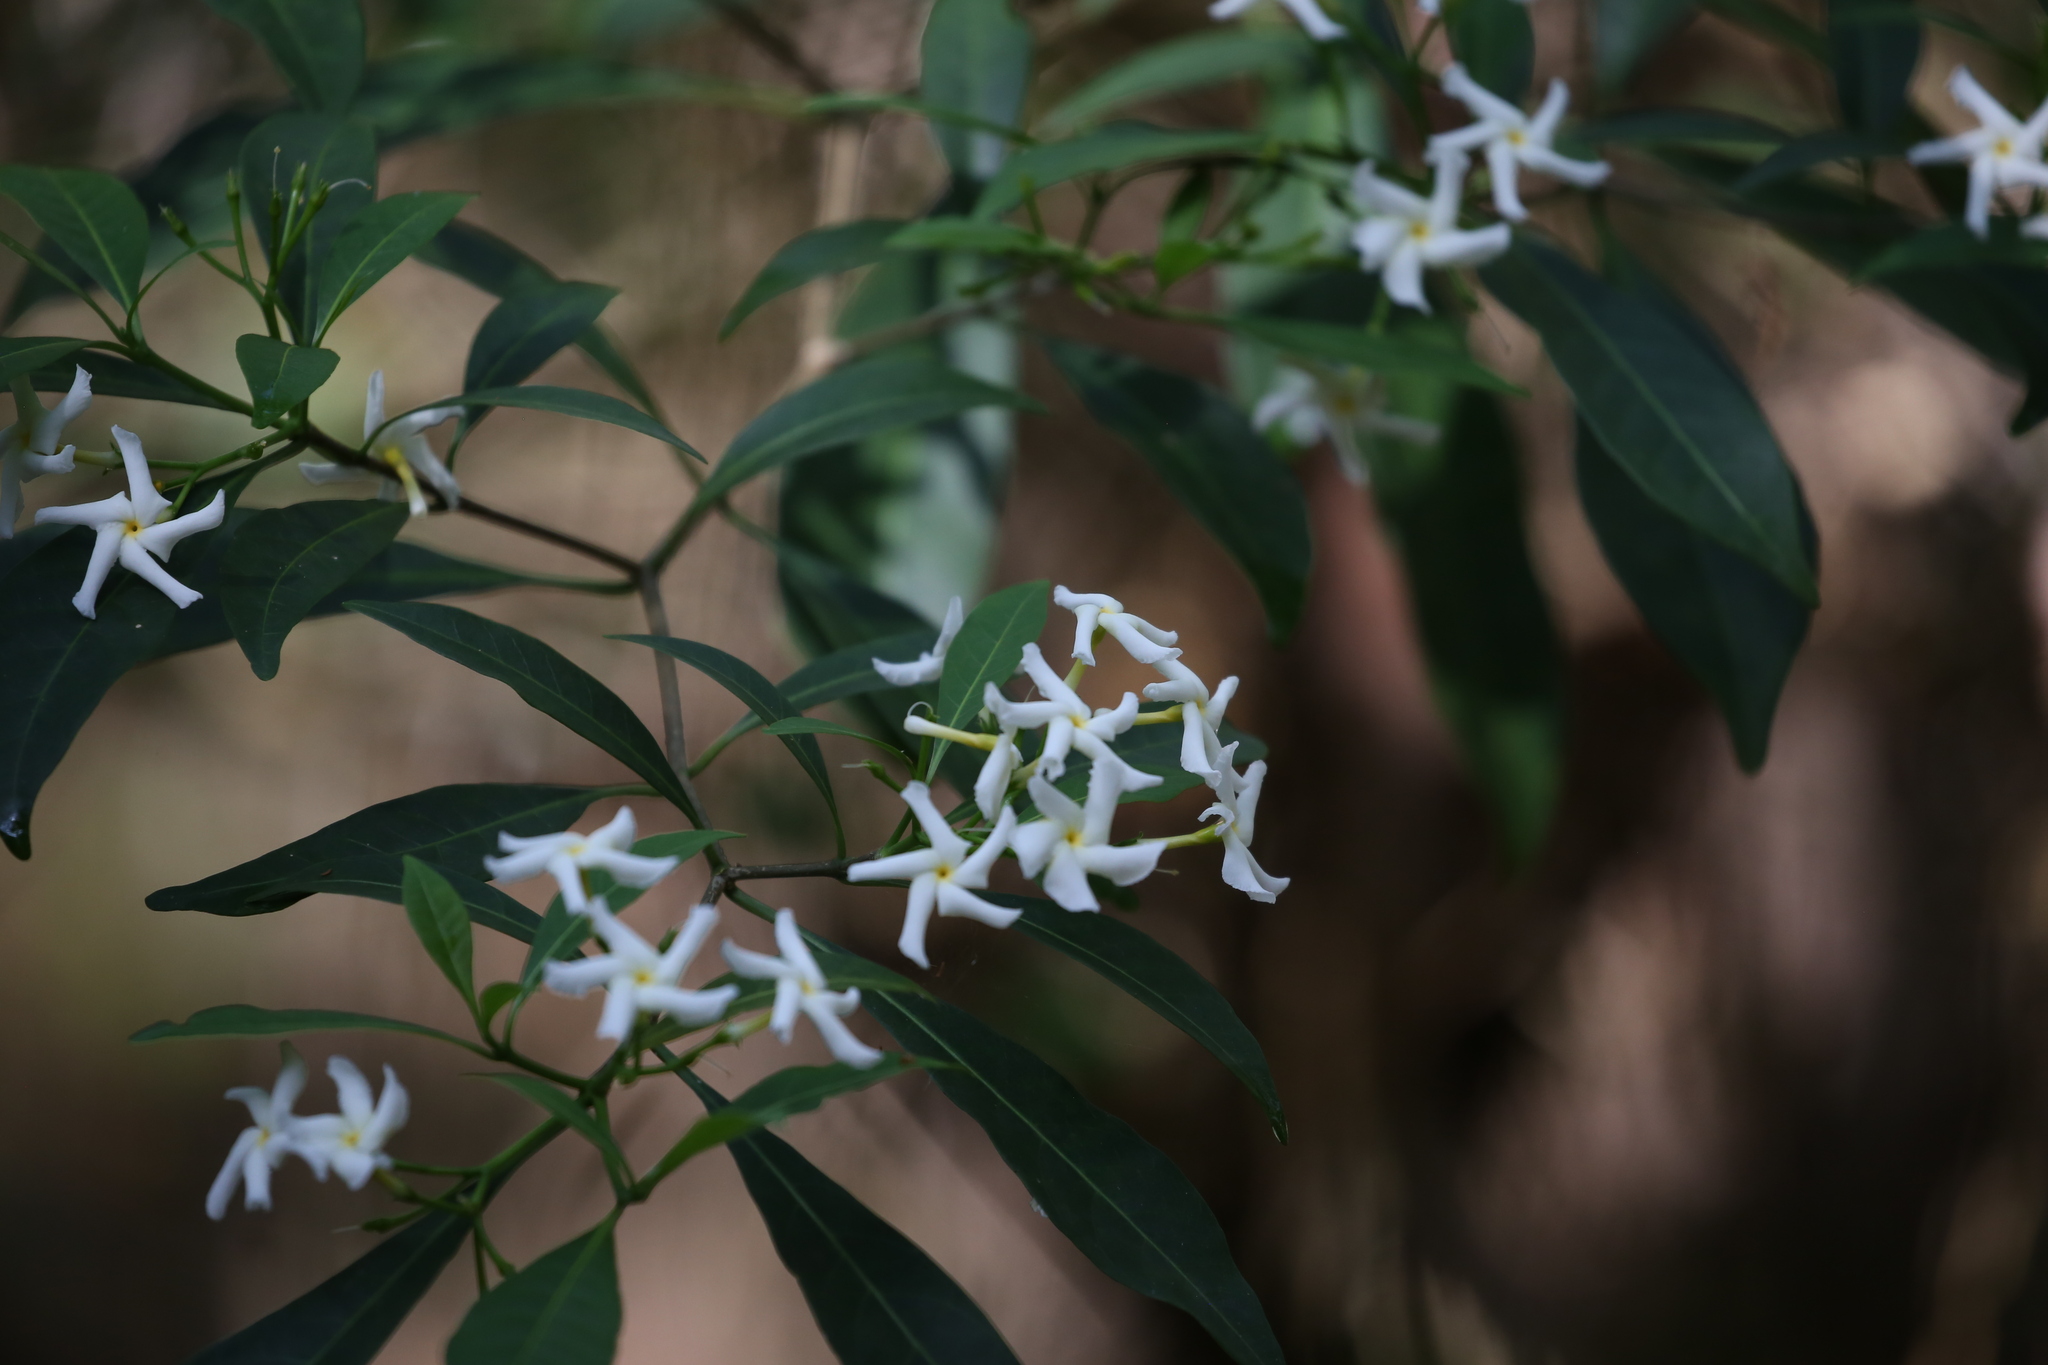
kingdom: Plantae
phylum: Tracheophyta
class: Magnoliopsida
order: Gentianales
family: Apocynaceae
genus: Tabernaemontana
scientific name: Tabernaemontana pandacaqui
